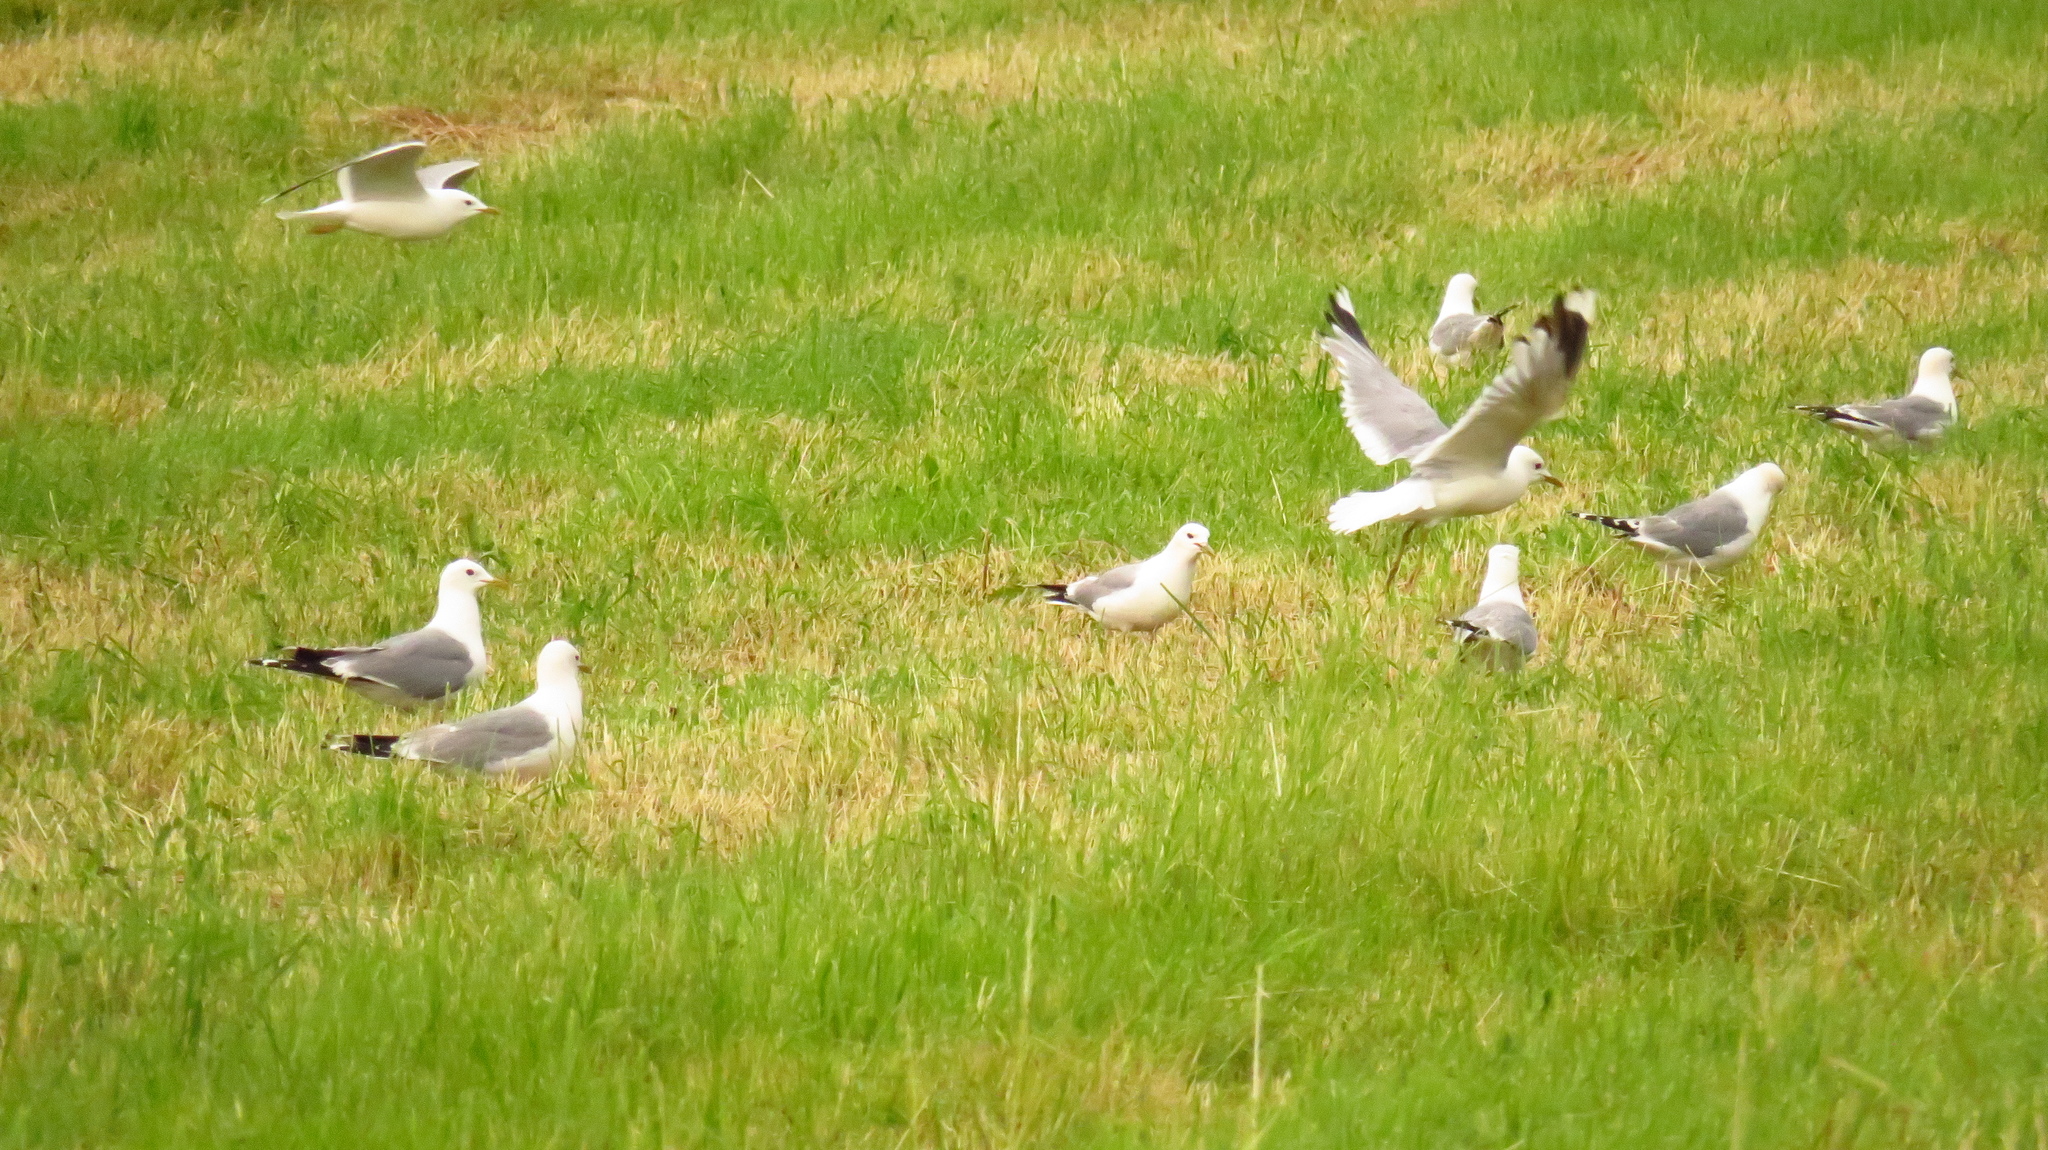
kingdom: Animalia
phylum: Chordata
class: Aves
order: Charadriiformes
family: Laridae
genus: Larus
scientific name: Larus canus
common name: Mew gull
